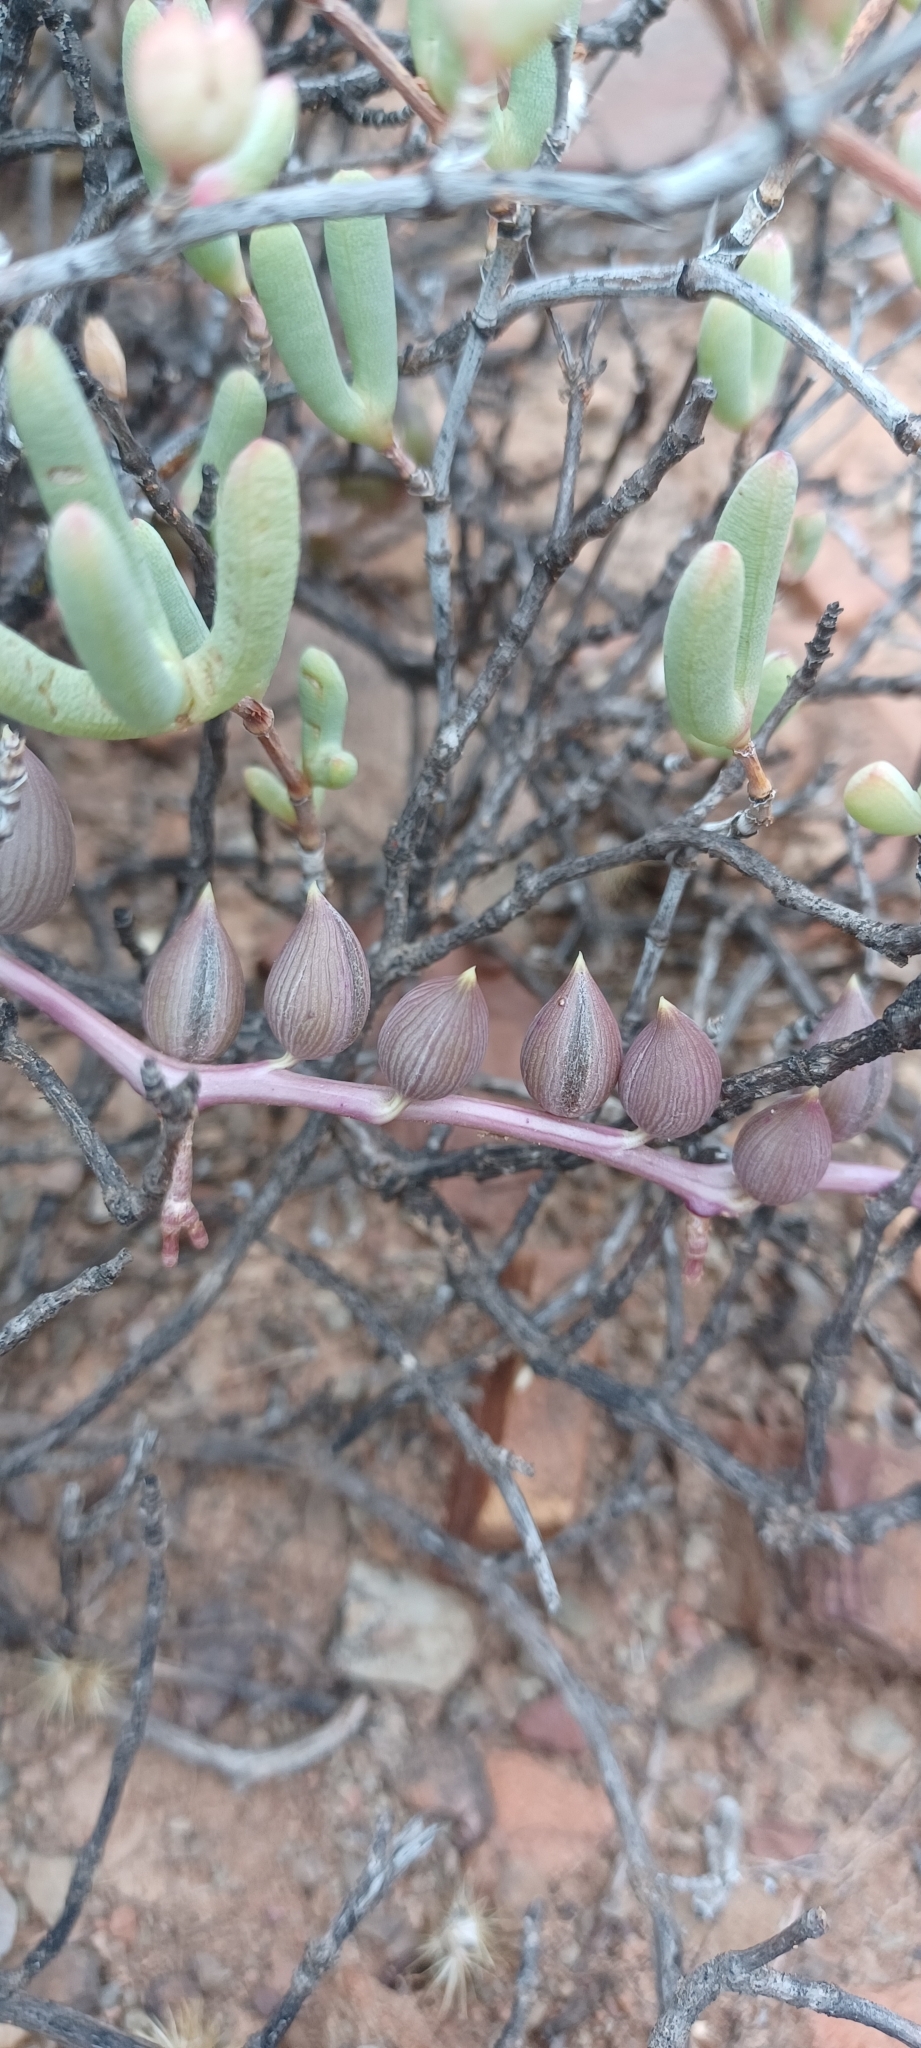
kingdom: Plantae
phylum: Tracheophyta
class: Magnoliopsida
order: Asterales
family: Asteraceae
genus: Curio
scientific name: Curio radicans
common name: Creeping-berry
